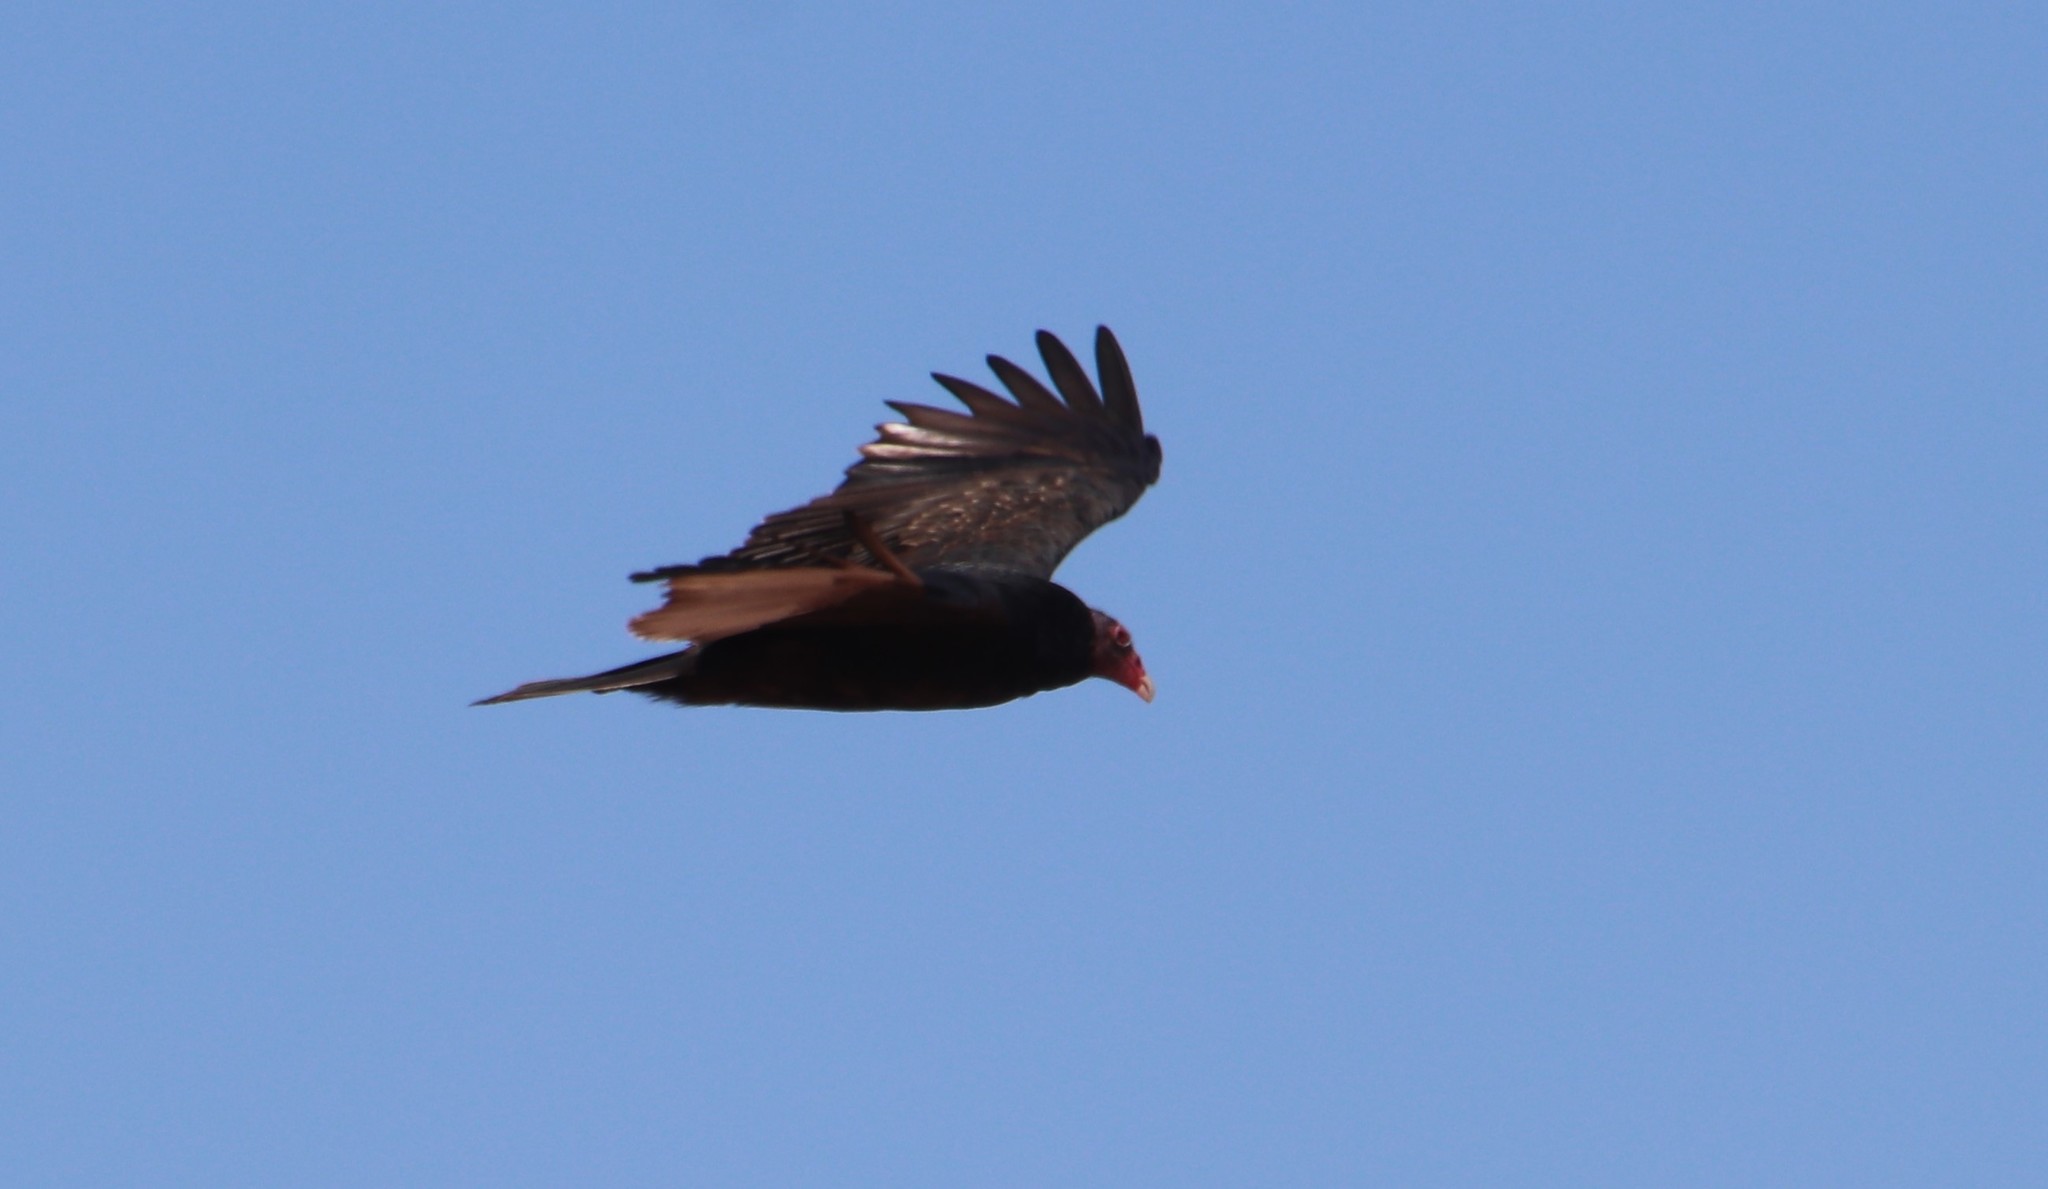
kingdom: Animalia
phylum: Chordata
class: Aves
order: Accipitriformes
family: Cathartidae
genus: Cathartes
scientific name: Cathartes aura
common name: Turkey vulture
